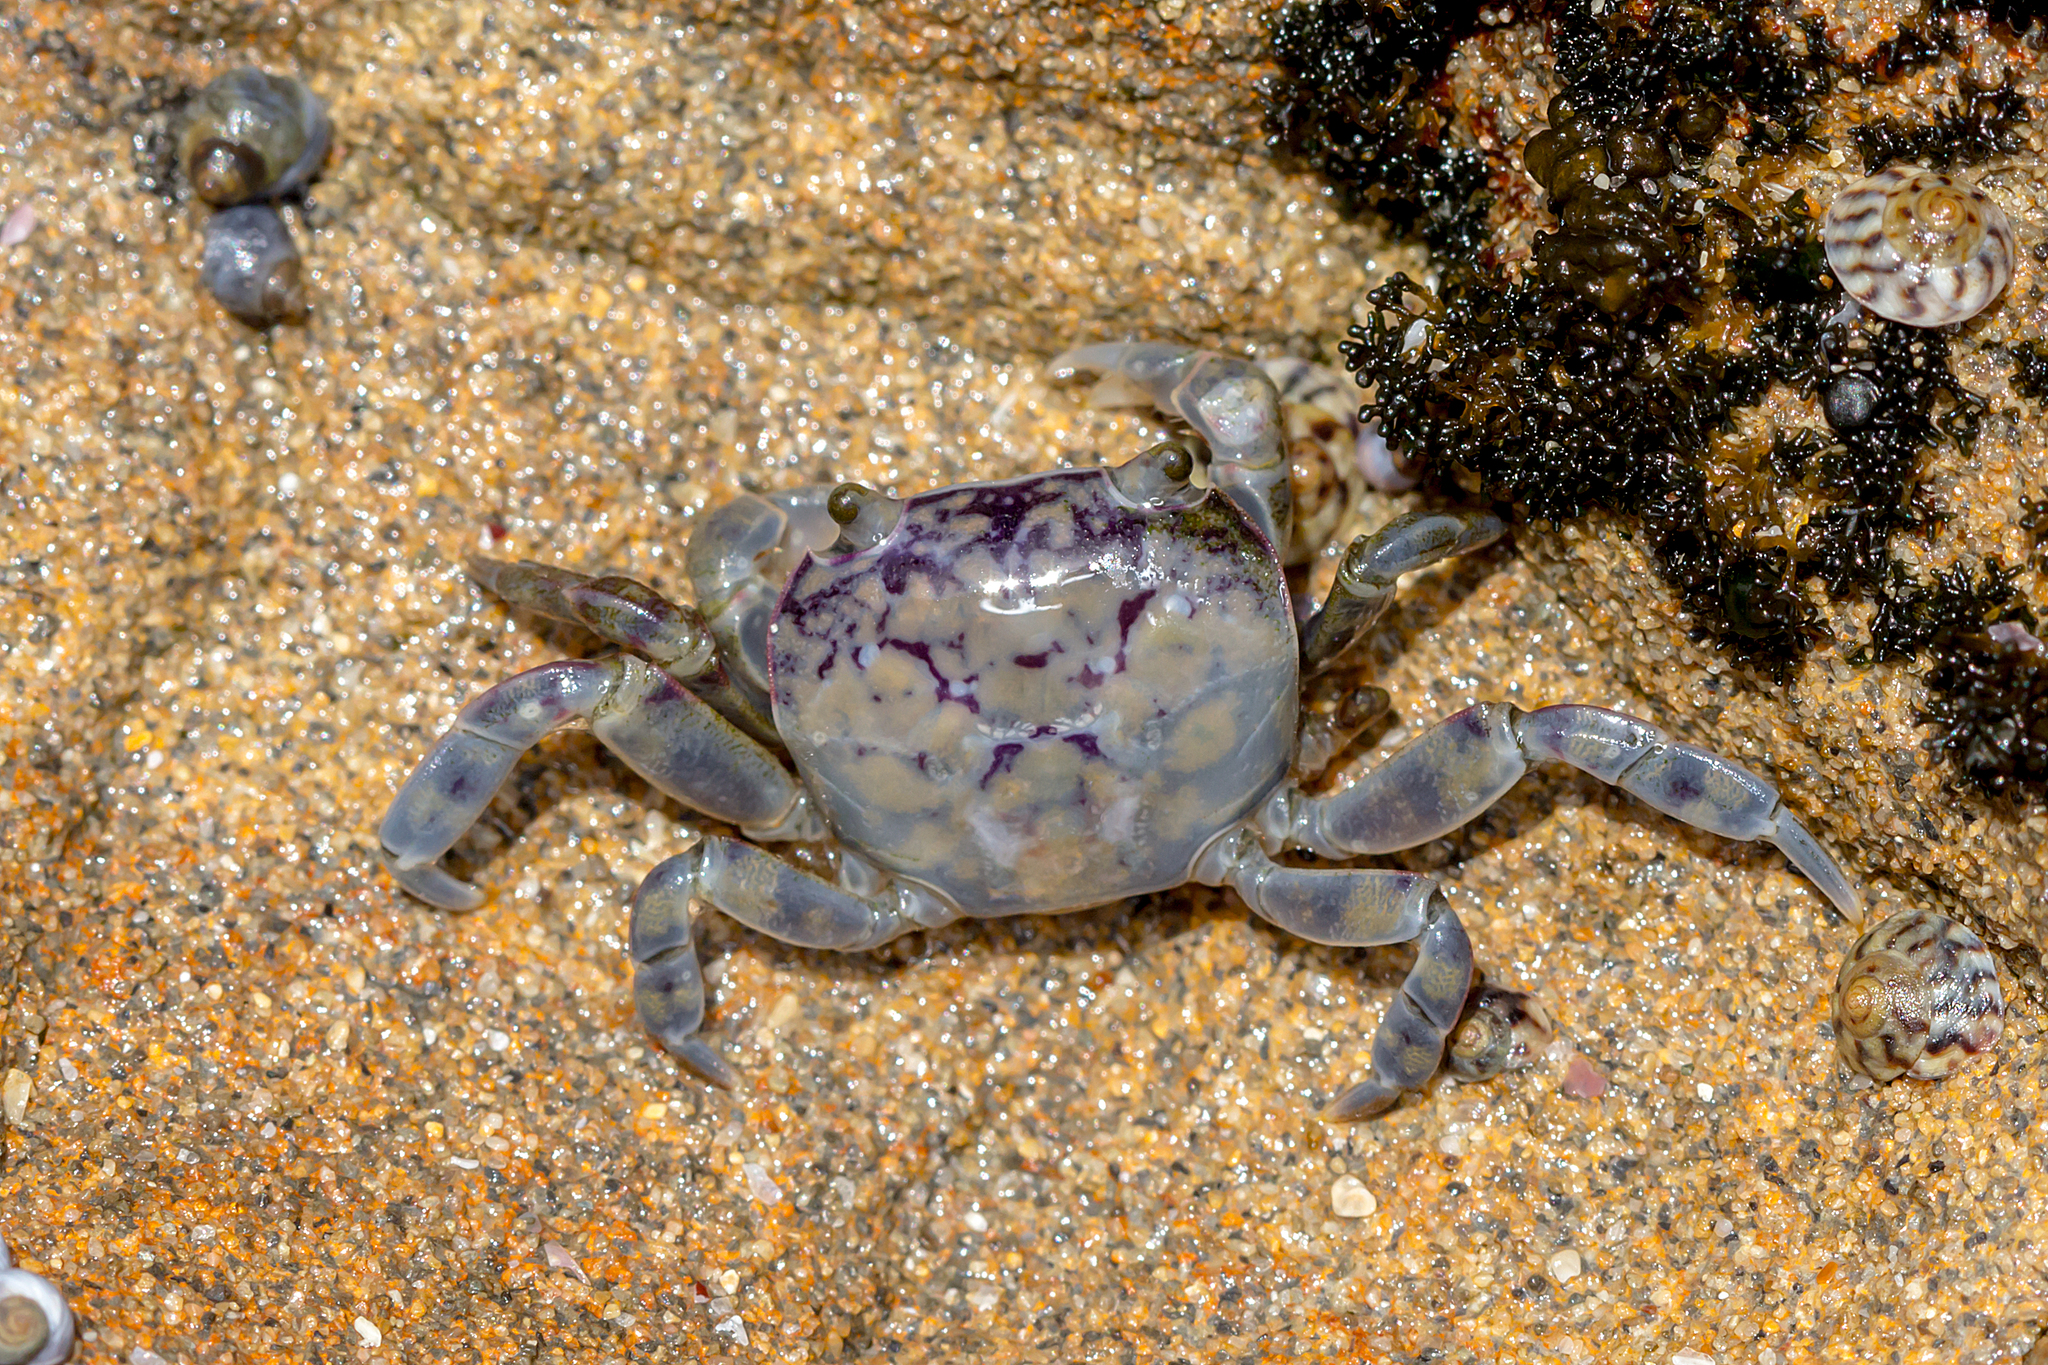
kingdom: Animalia
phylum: Arthropoda
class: Malacostraca
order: Decapoda
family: Varunidae
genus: Cyclograpsus
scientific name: Cyclograpsus granulosus
